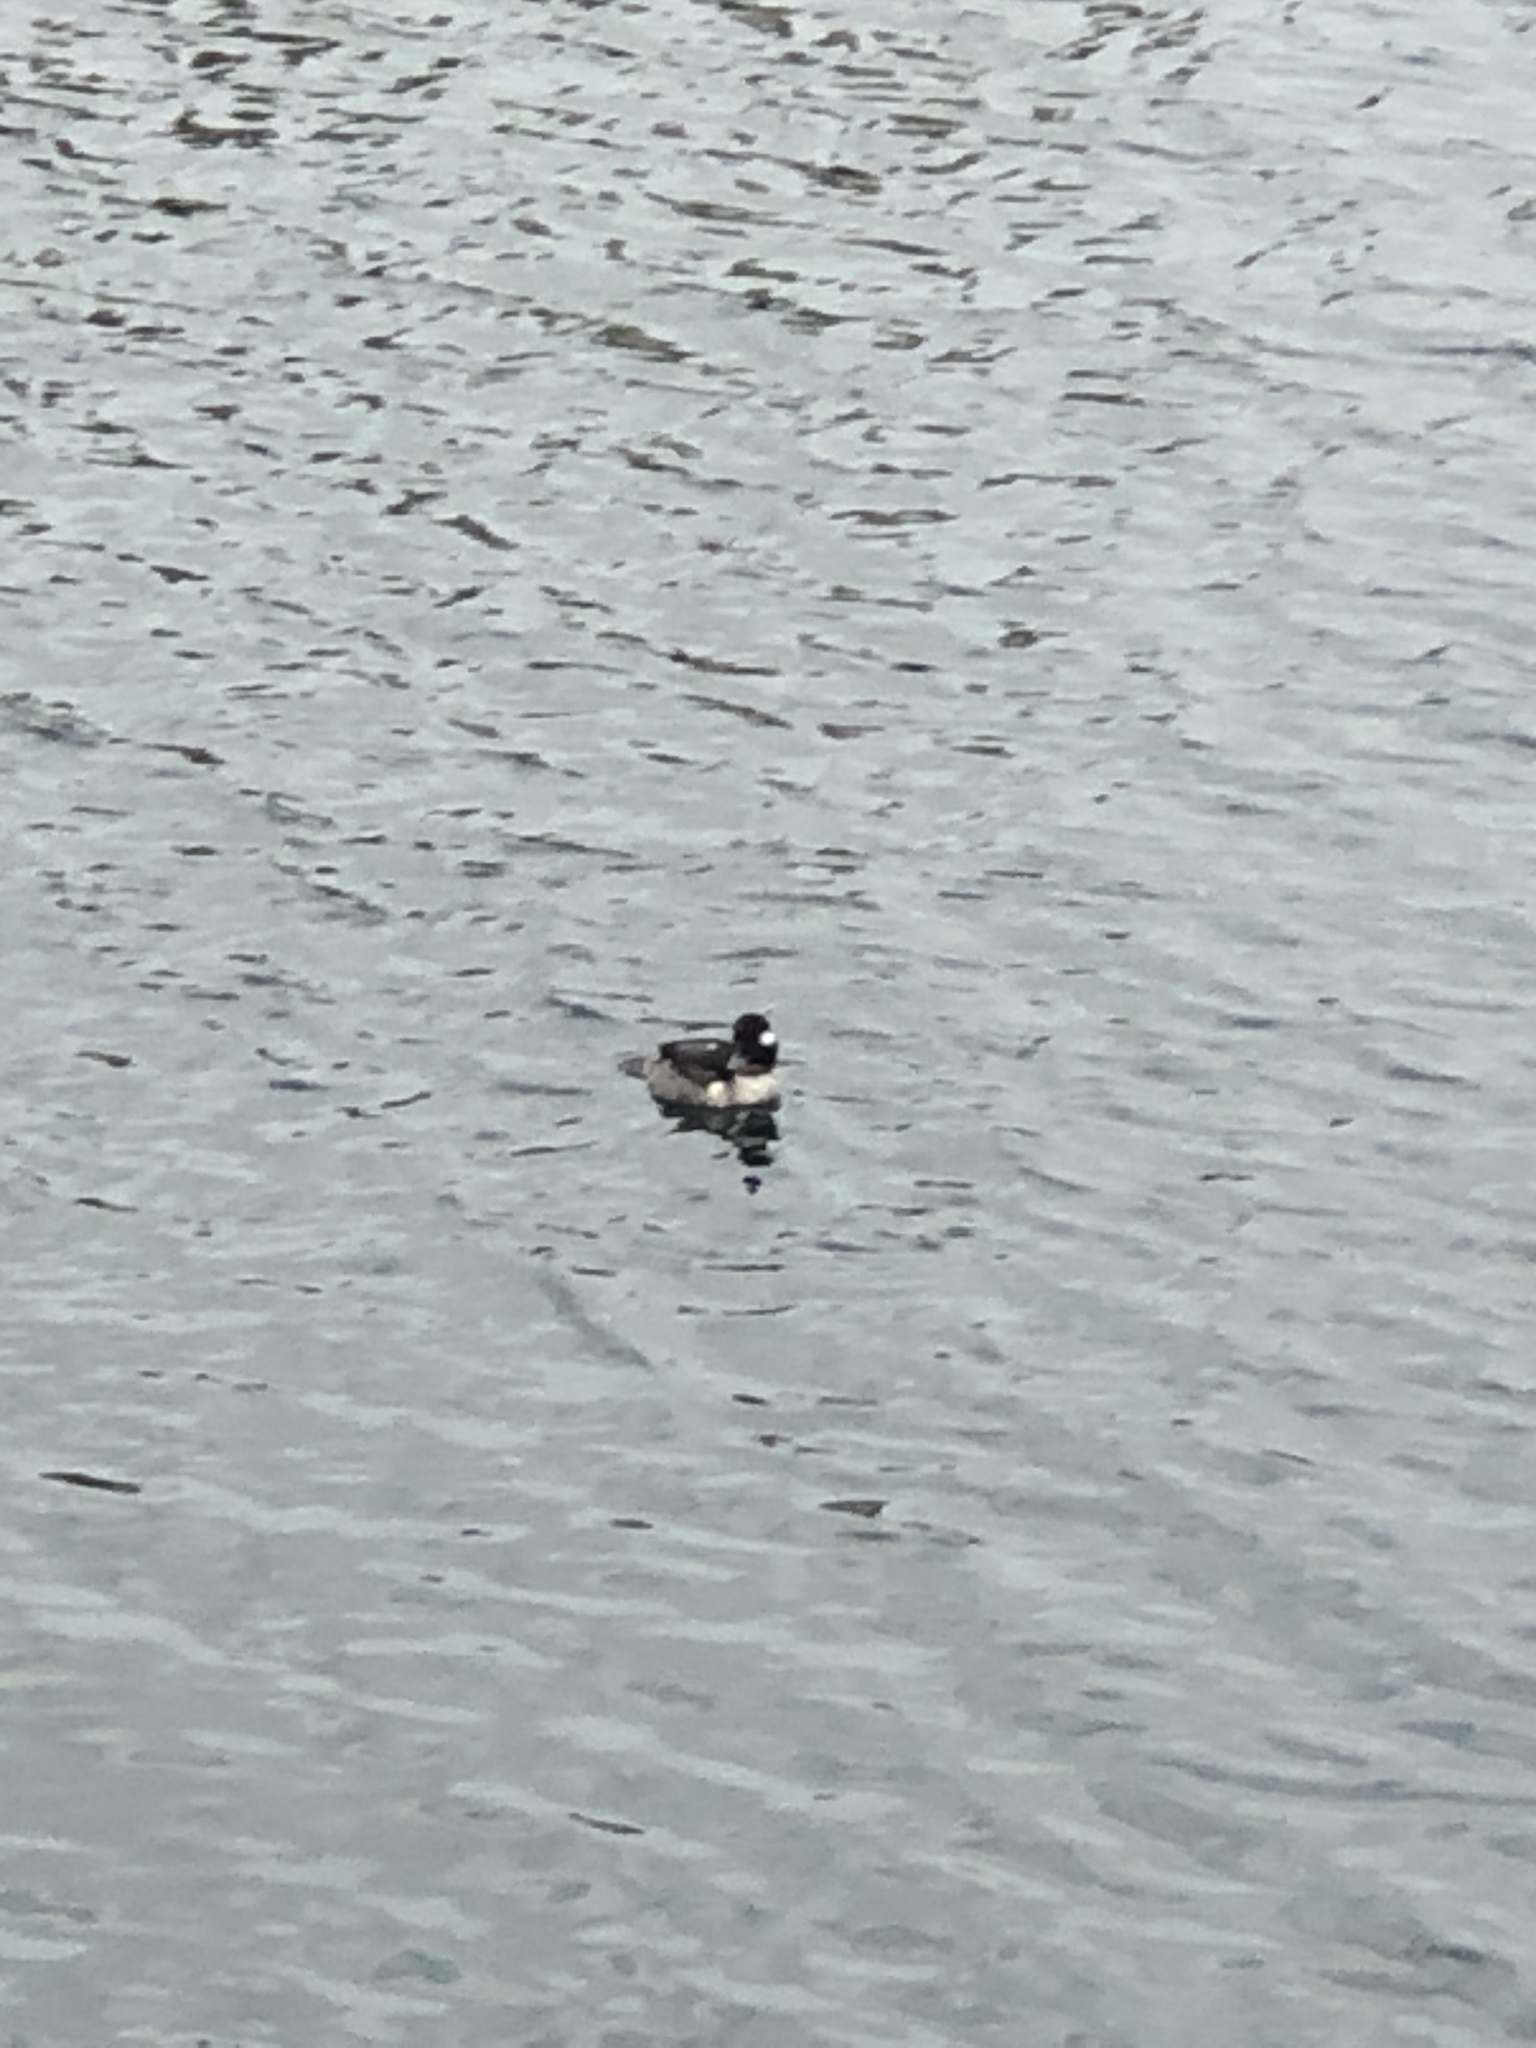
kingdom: Animalia
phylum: Chordata
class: Aves
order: Anseriformes
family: Anatidae
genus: Bucephala
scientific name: Bucephala albeola
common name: Bufflehead
